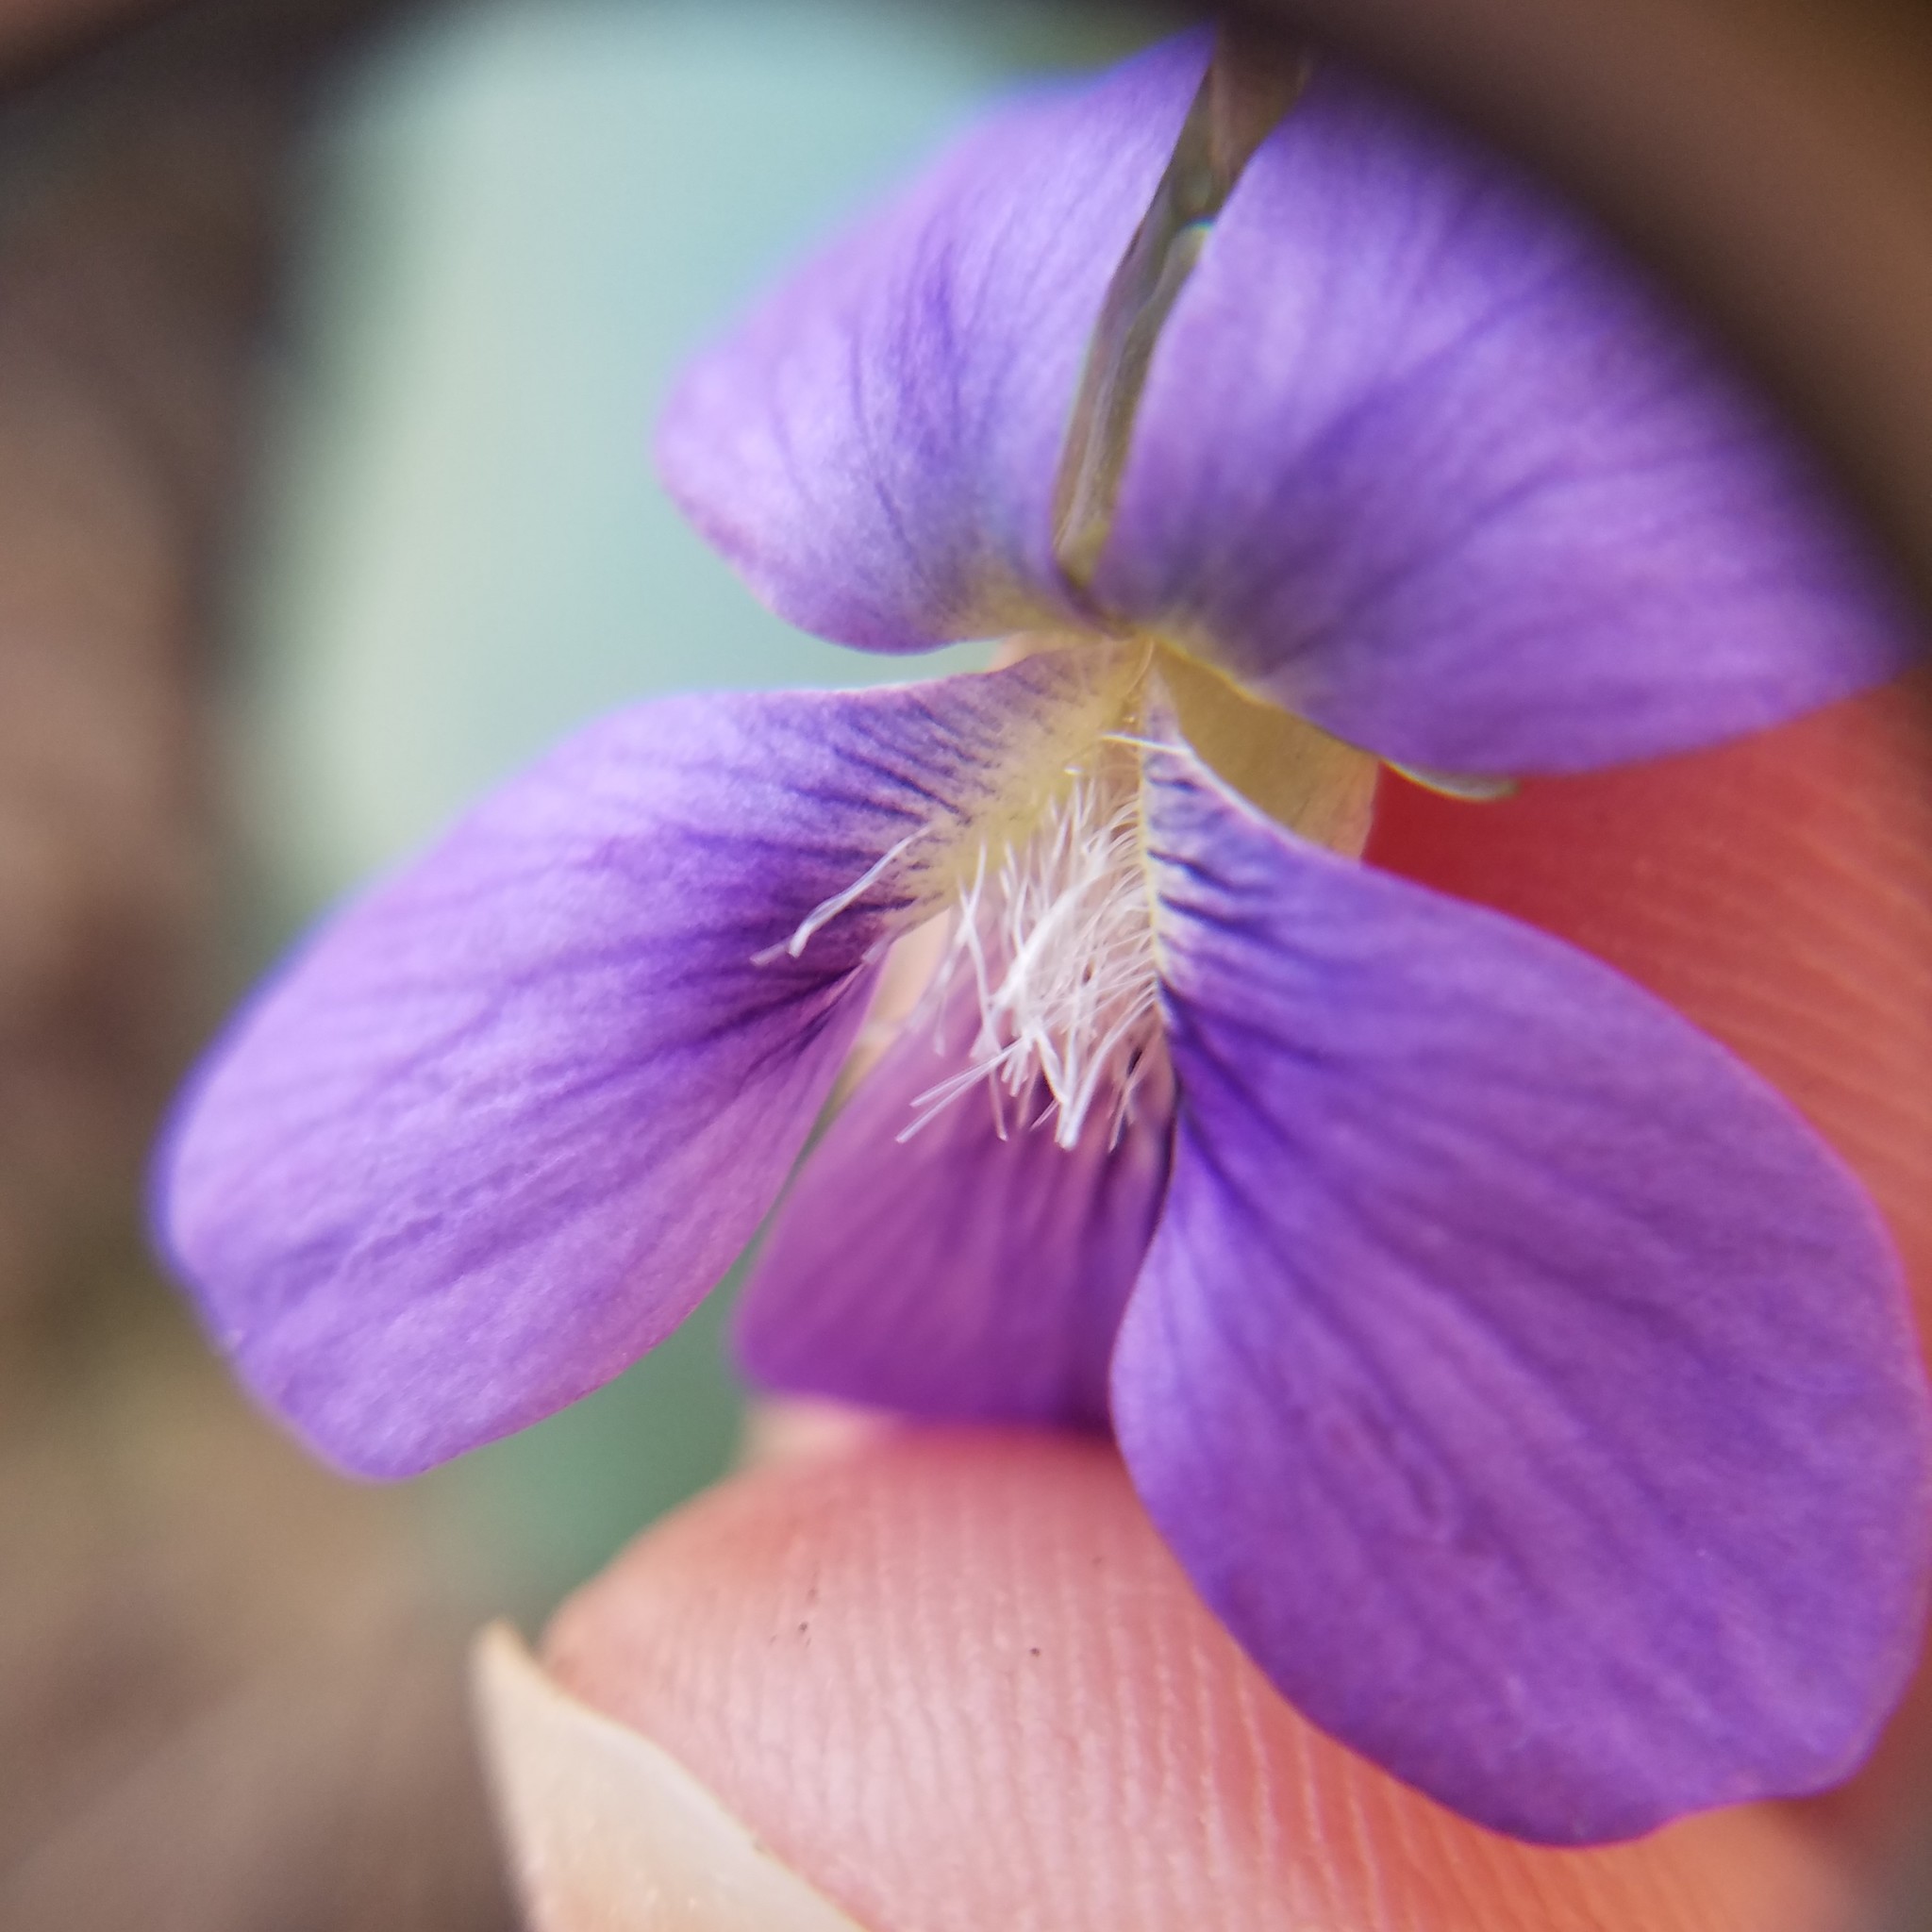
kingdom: Plantae
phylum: Tracheophyta
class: Magnoliopsida
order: Malpighiales
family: Violaceae
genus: Viola
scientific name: Viola hirsutula
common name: Southern wood violet
